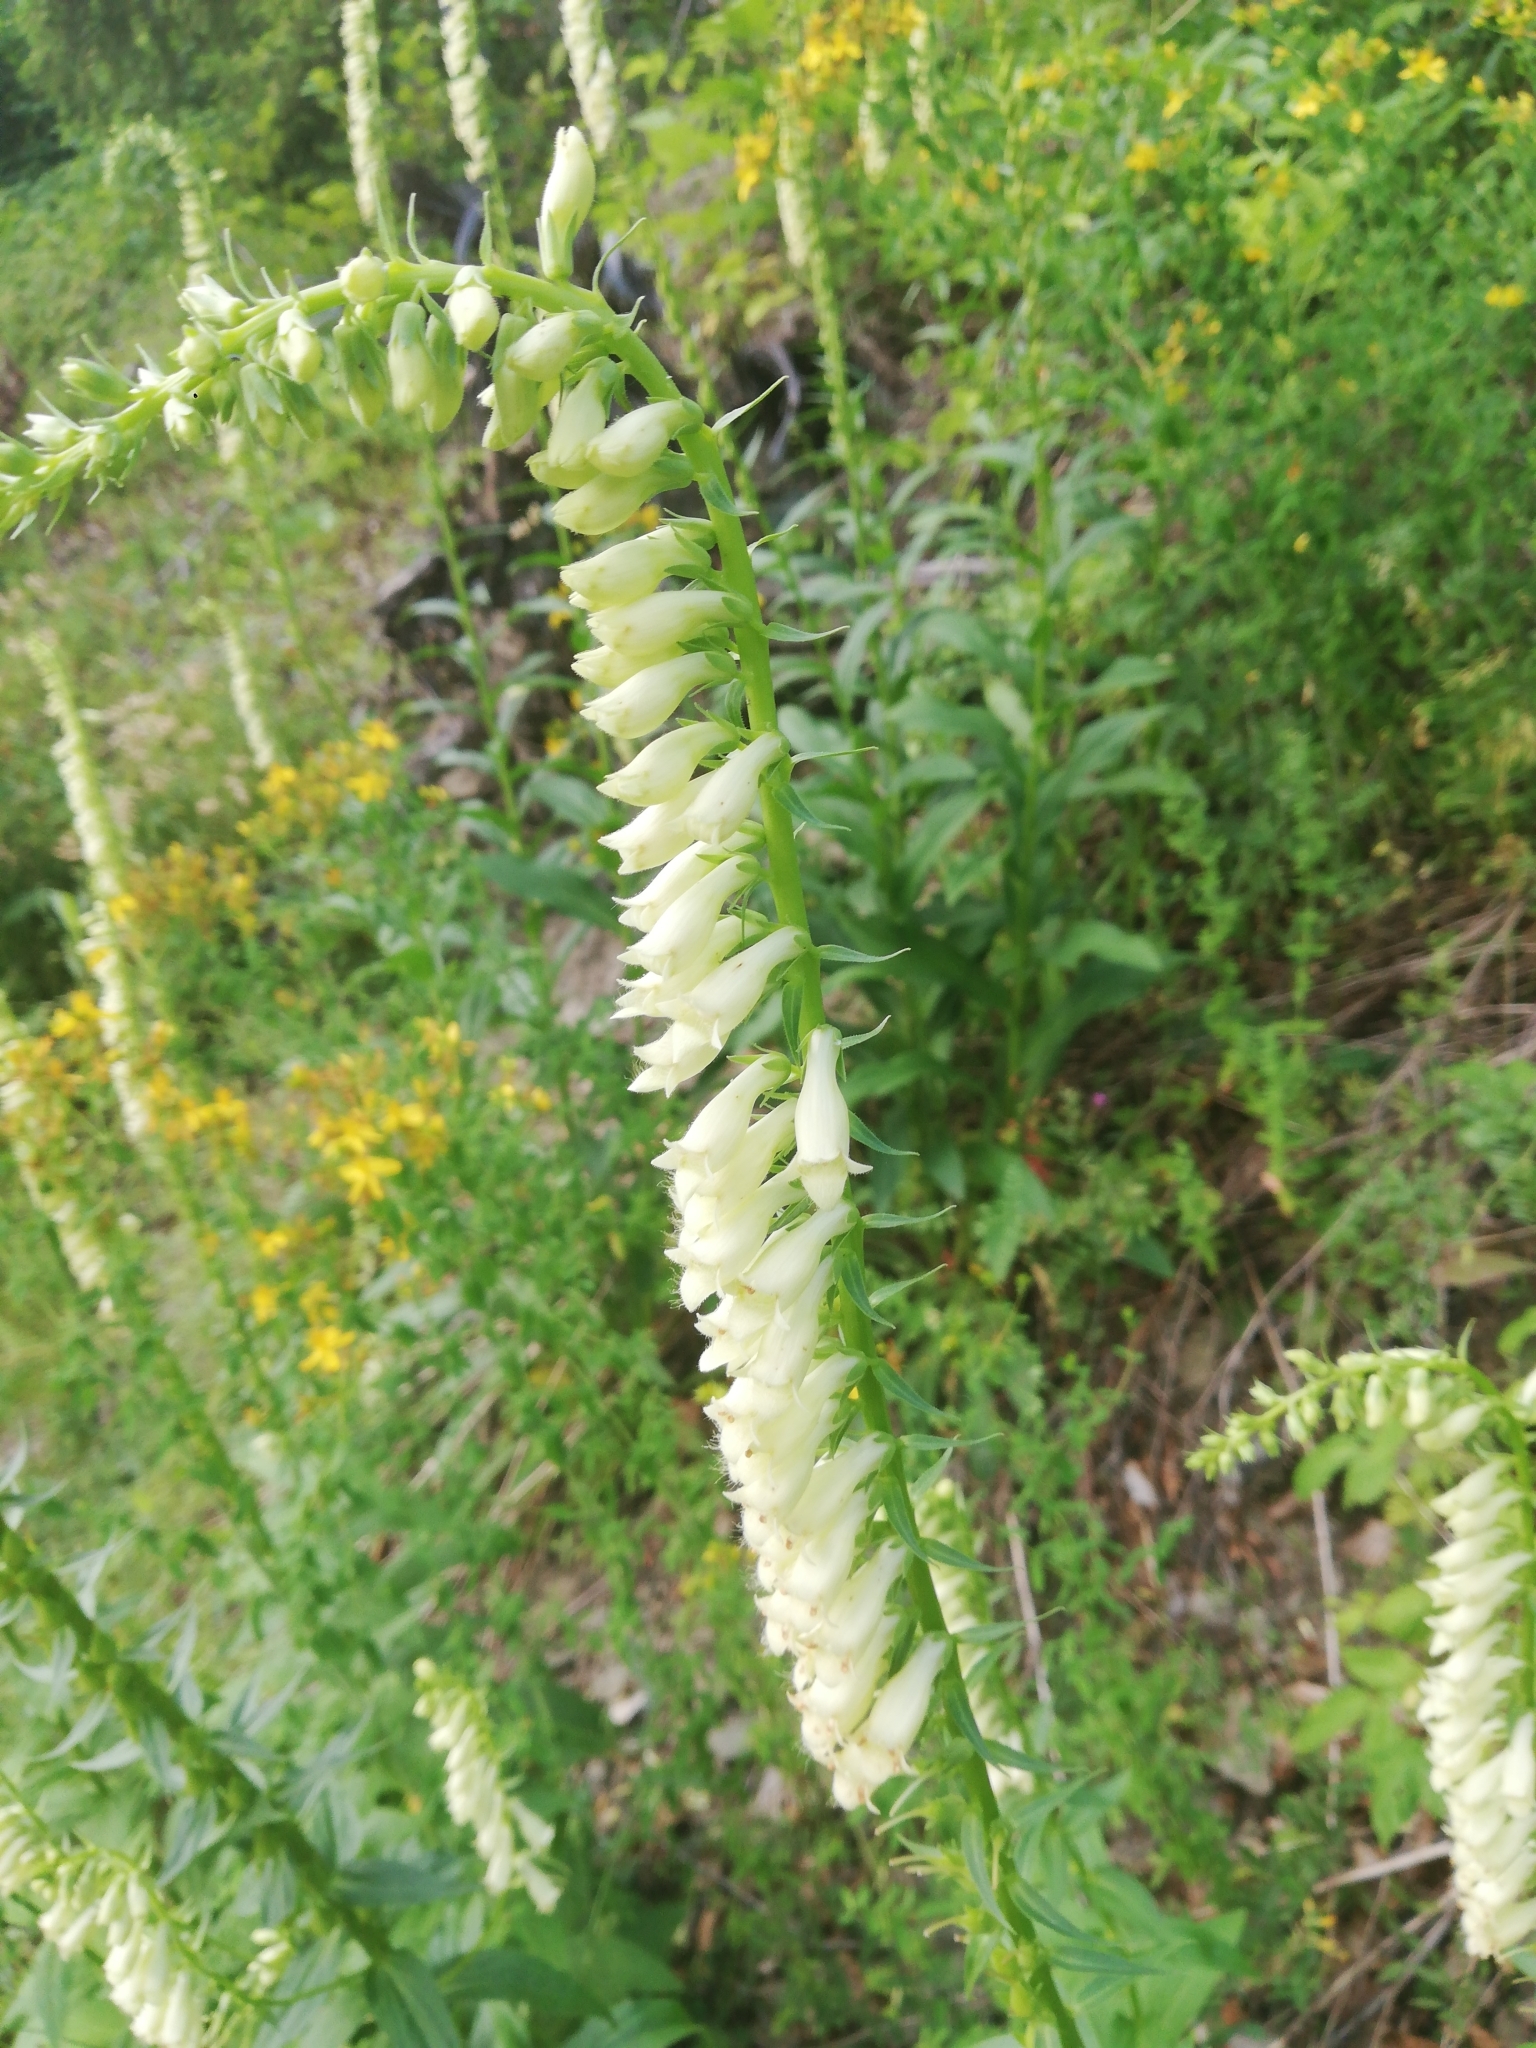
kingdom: Plantae
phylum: Tracheophyta
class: Magnoliopsida
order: Lamiales
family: Plantaginaceae
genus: Digitalis
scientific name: Digitalis lutea
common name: Straw foxglove
